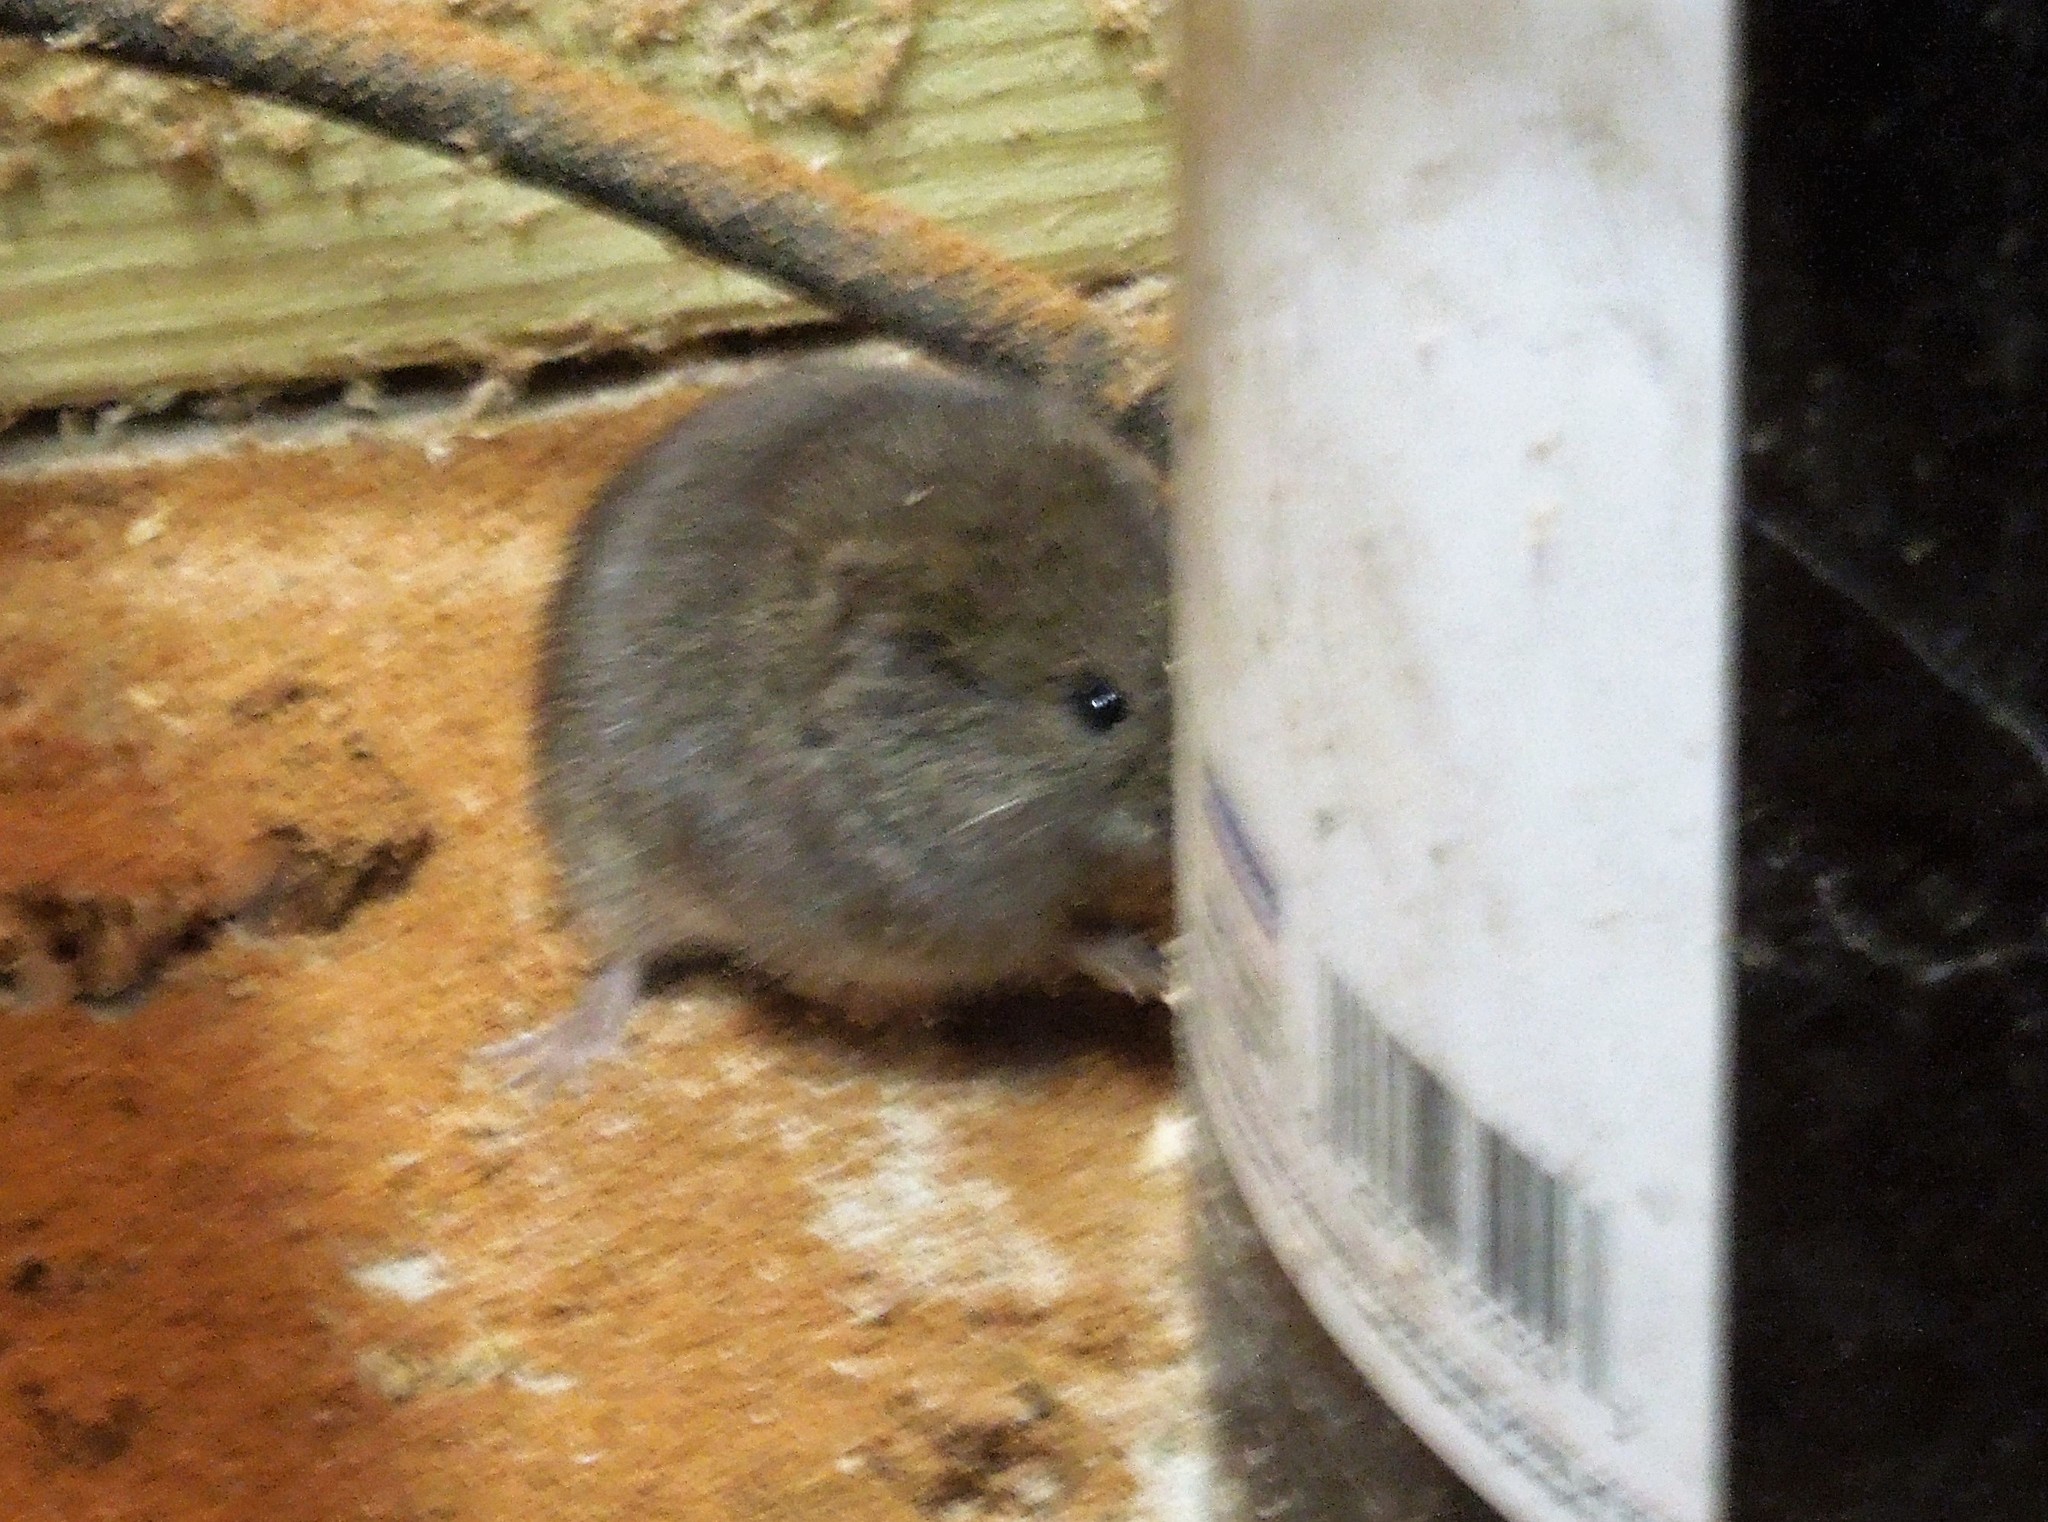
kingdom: Animalia
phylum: Chordata
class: Mammalia
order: Rodentia
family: Cricetidae
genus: Microtus
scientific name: Microtus pennsylvanicus
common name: Meadow vole
